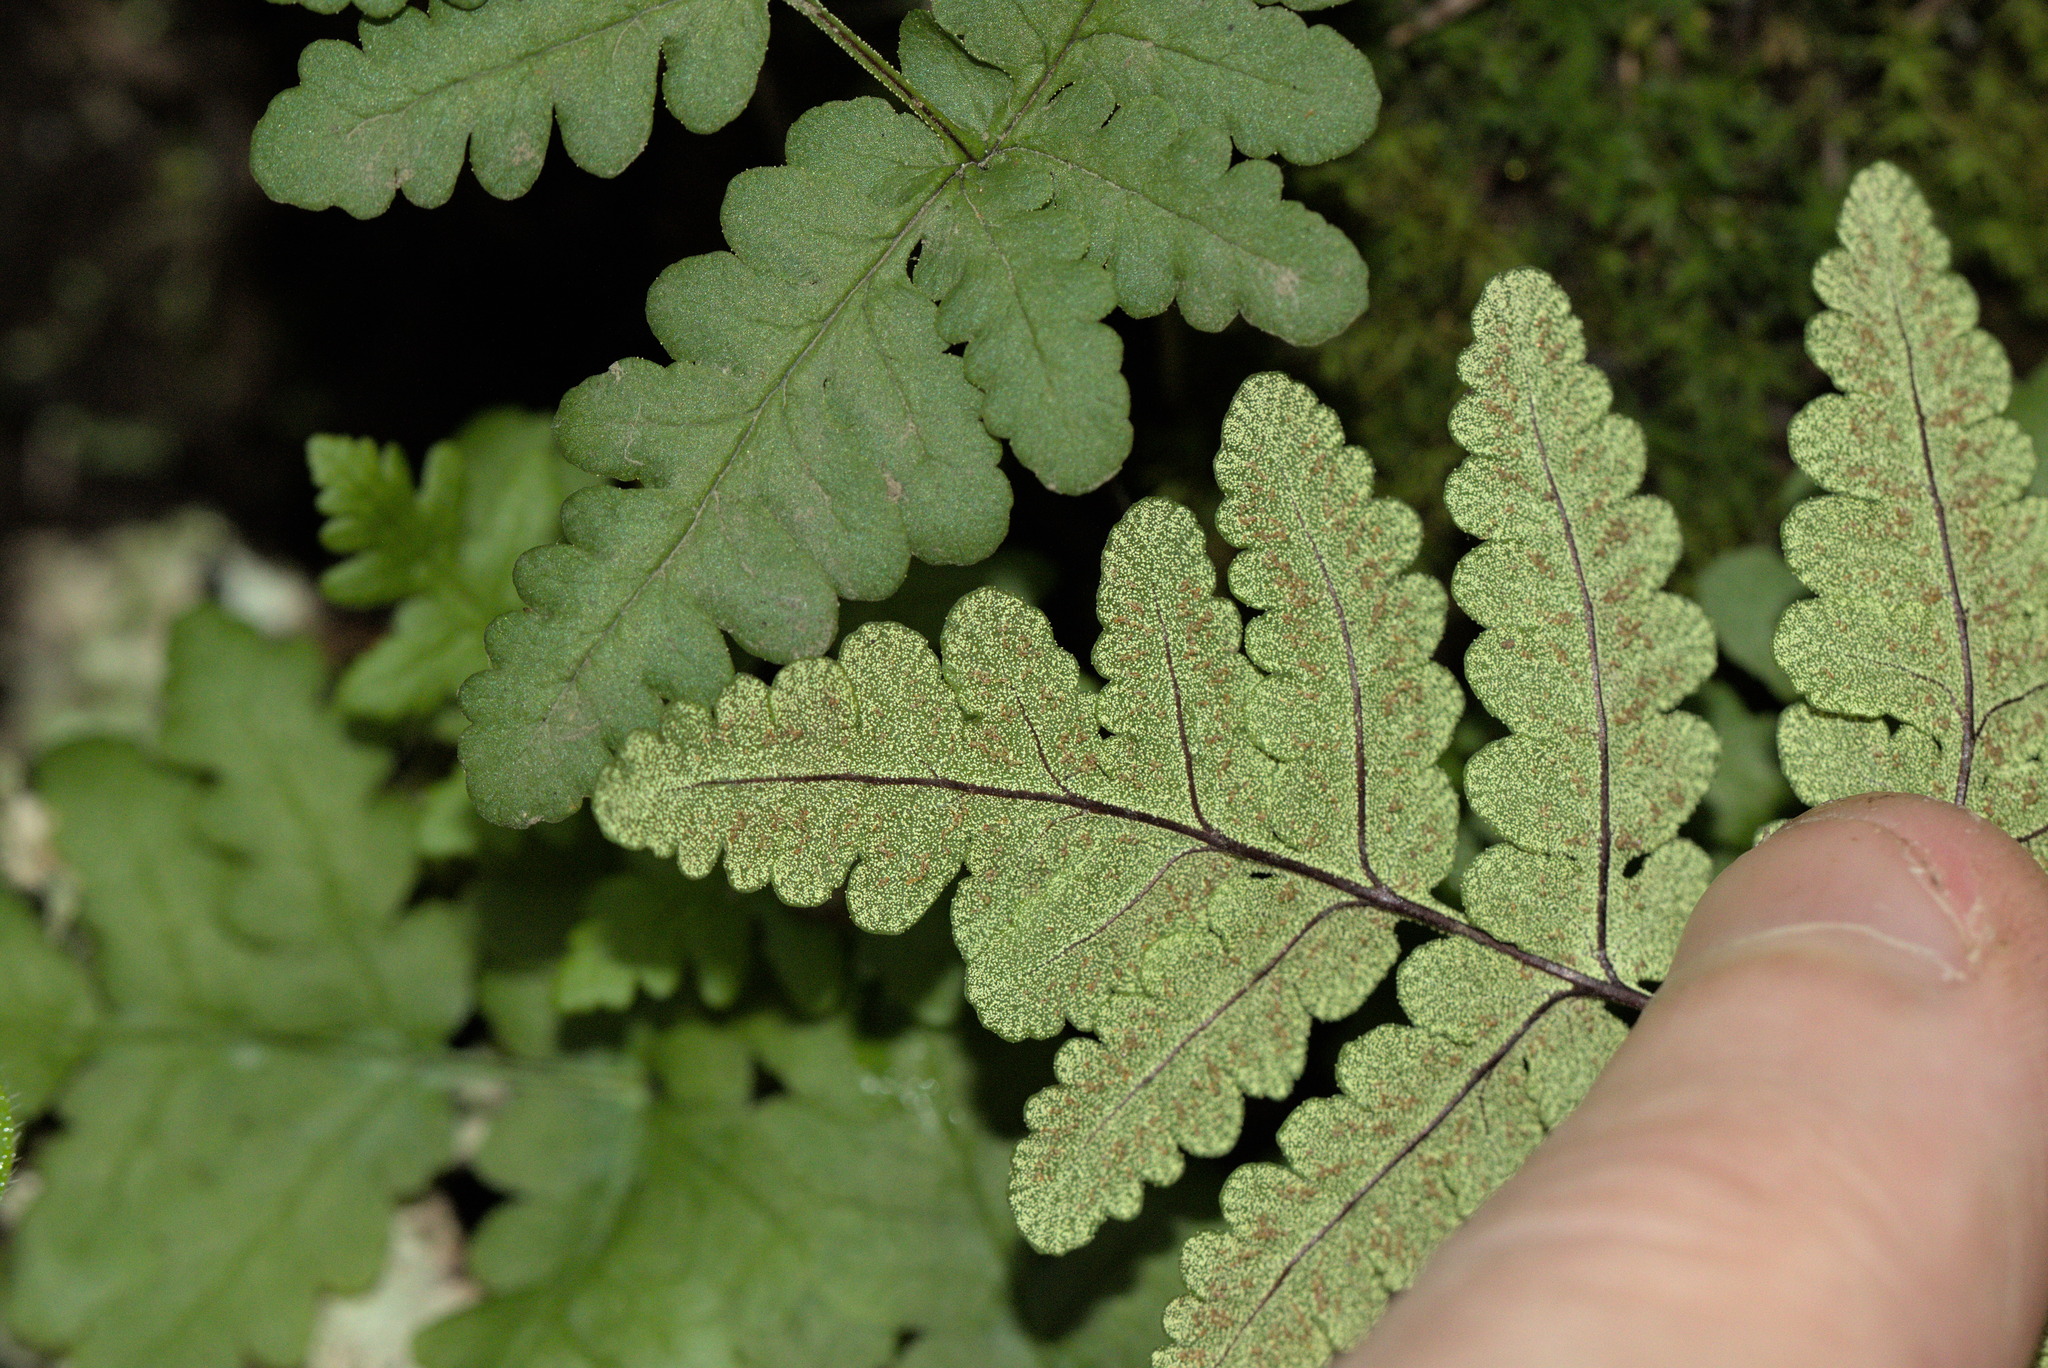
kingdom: Plantae
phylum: Tracheophyta
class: Polypodiopsida
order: Polypodiales
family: Pteridaceae
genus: Pentagramma
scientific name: Pentagramma triangularis
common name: Gold fern
